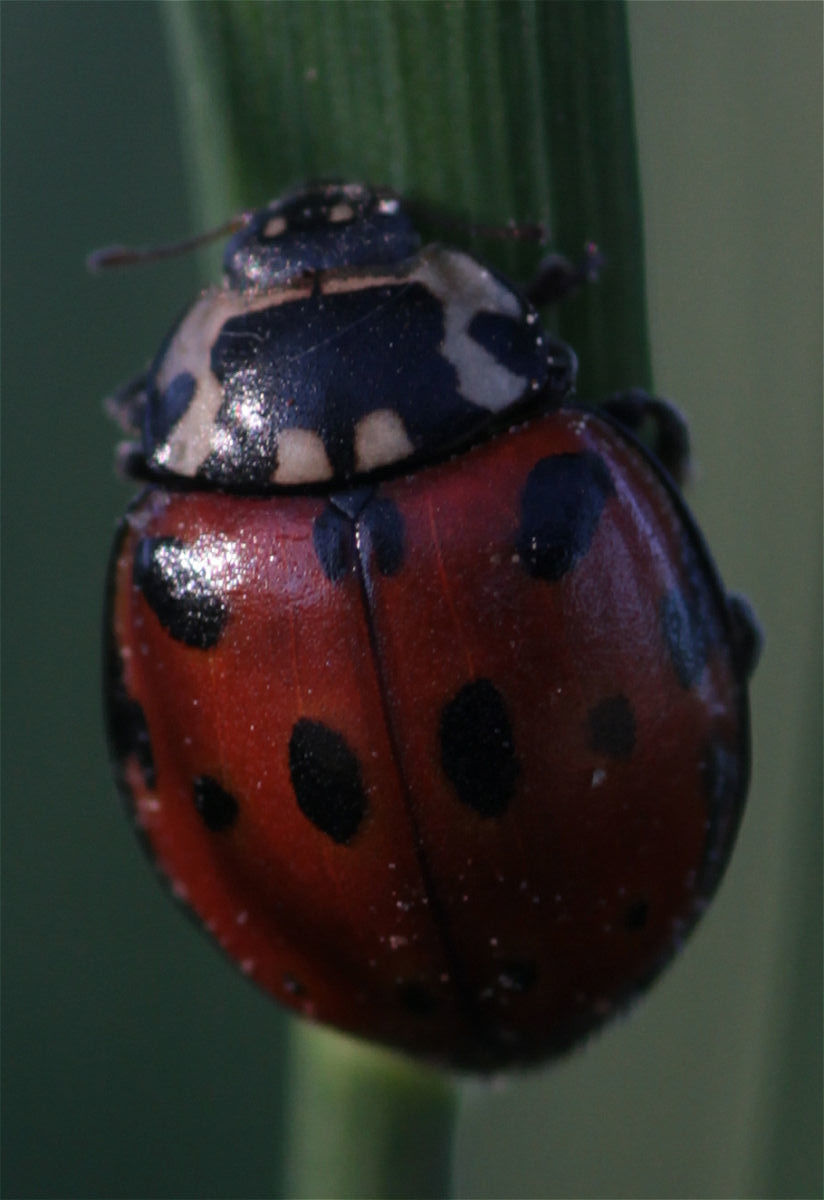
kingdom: Animalia
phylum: Arthropoda
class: Insecta
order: Coleoptera
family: Coccinellidae
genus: Anatis
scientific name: Anatis ocellata
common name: Eyed ladybird
